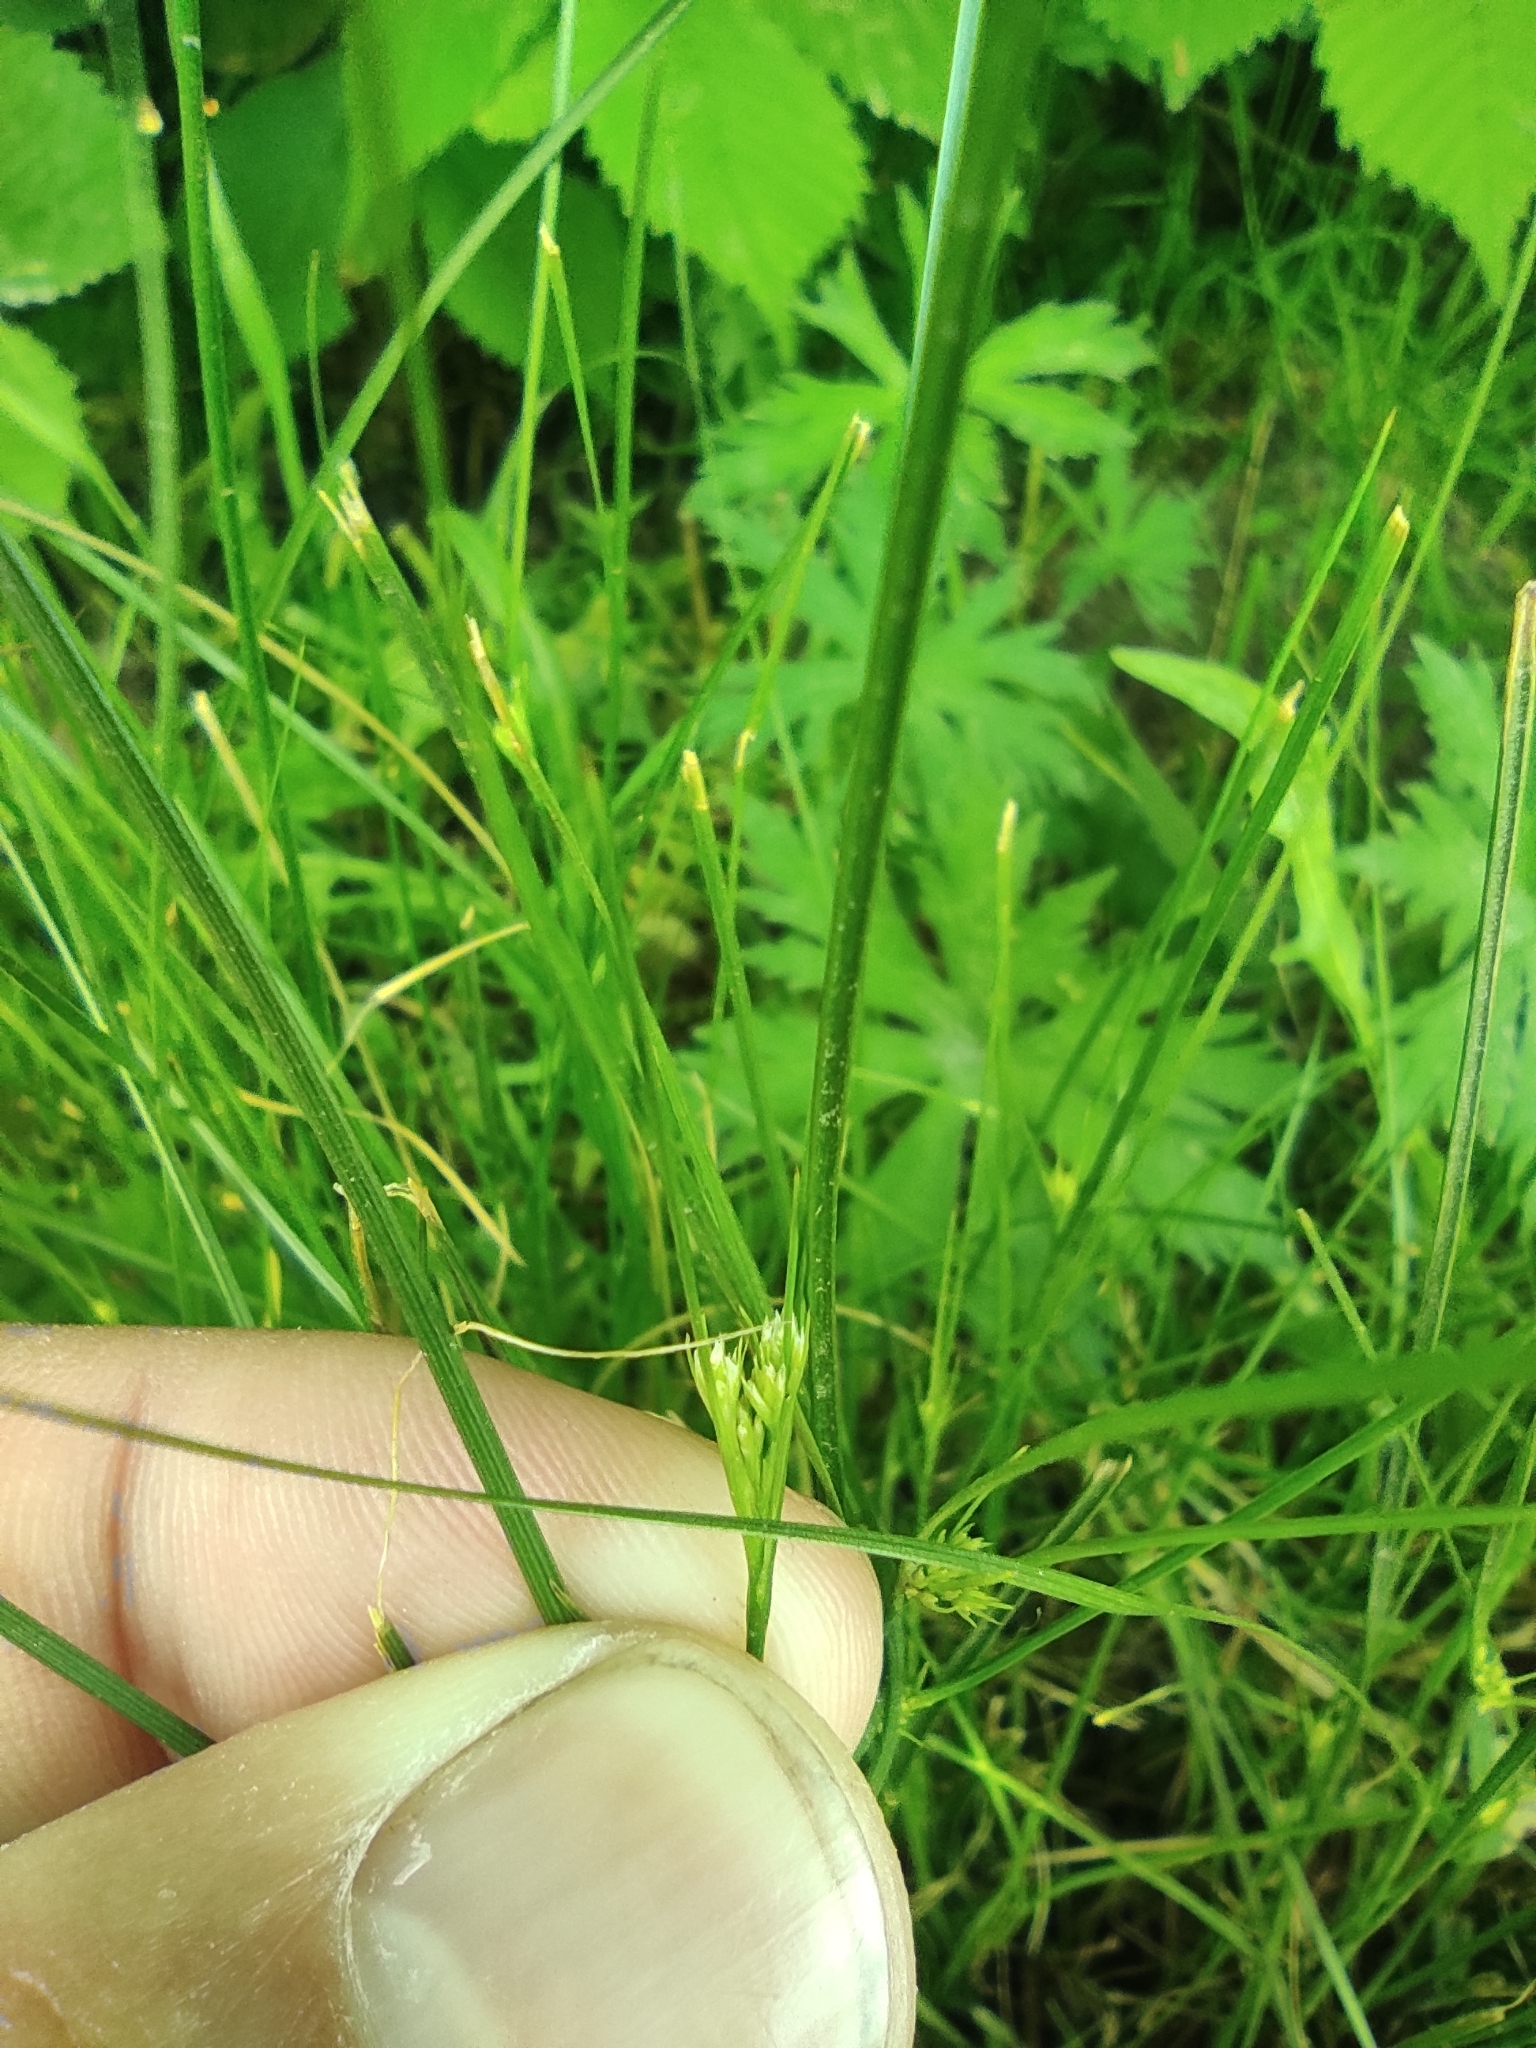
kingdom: Plantae
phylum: Tracheophyta
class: Liliopsida
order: Poales
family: Juncaceae
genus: Juncus
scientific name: Juncus tenuis
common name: Slender rush
